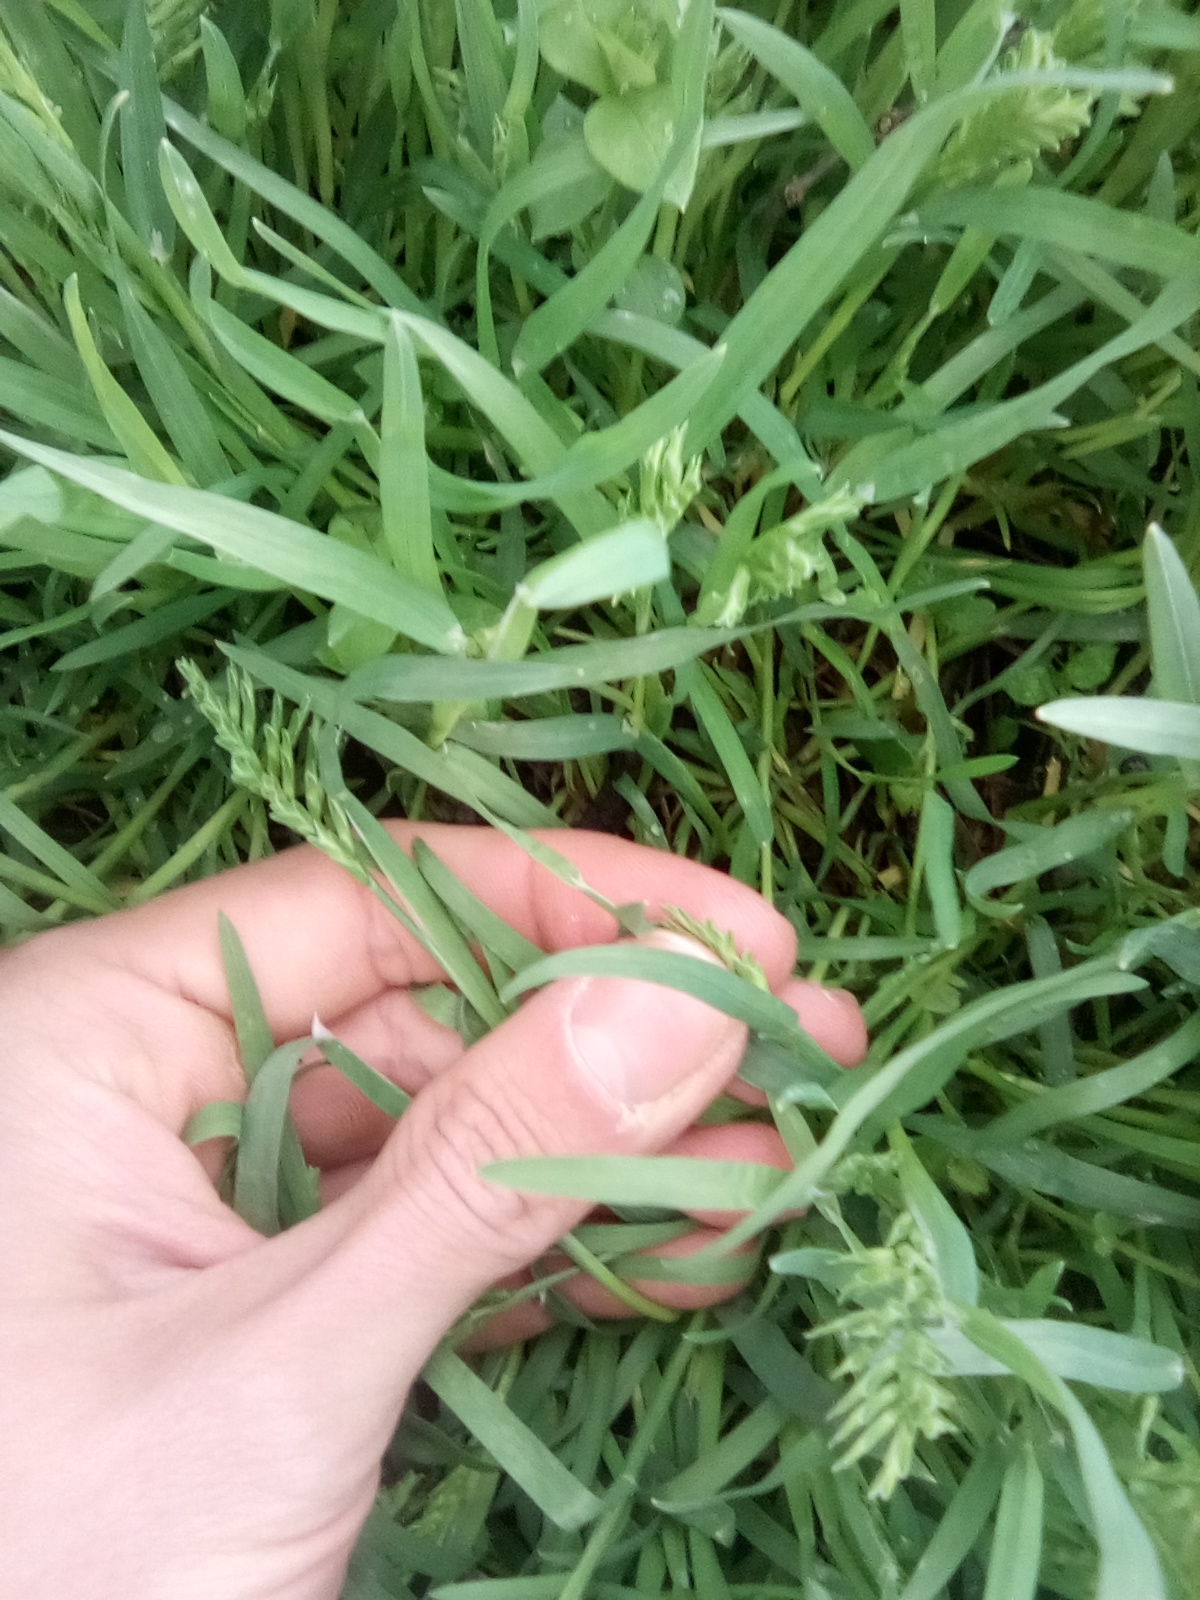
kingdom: Plantae
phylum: Tracheophyta
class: Liliopsida
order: Poales
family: Poaceae
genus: Sclerochloa
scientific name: Sclerochloa dura
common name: Common hardgrass
